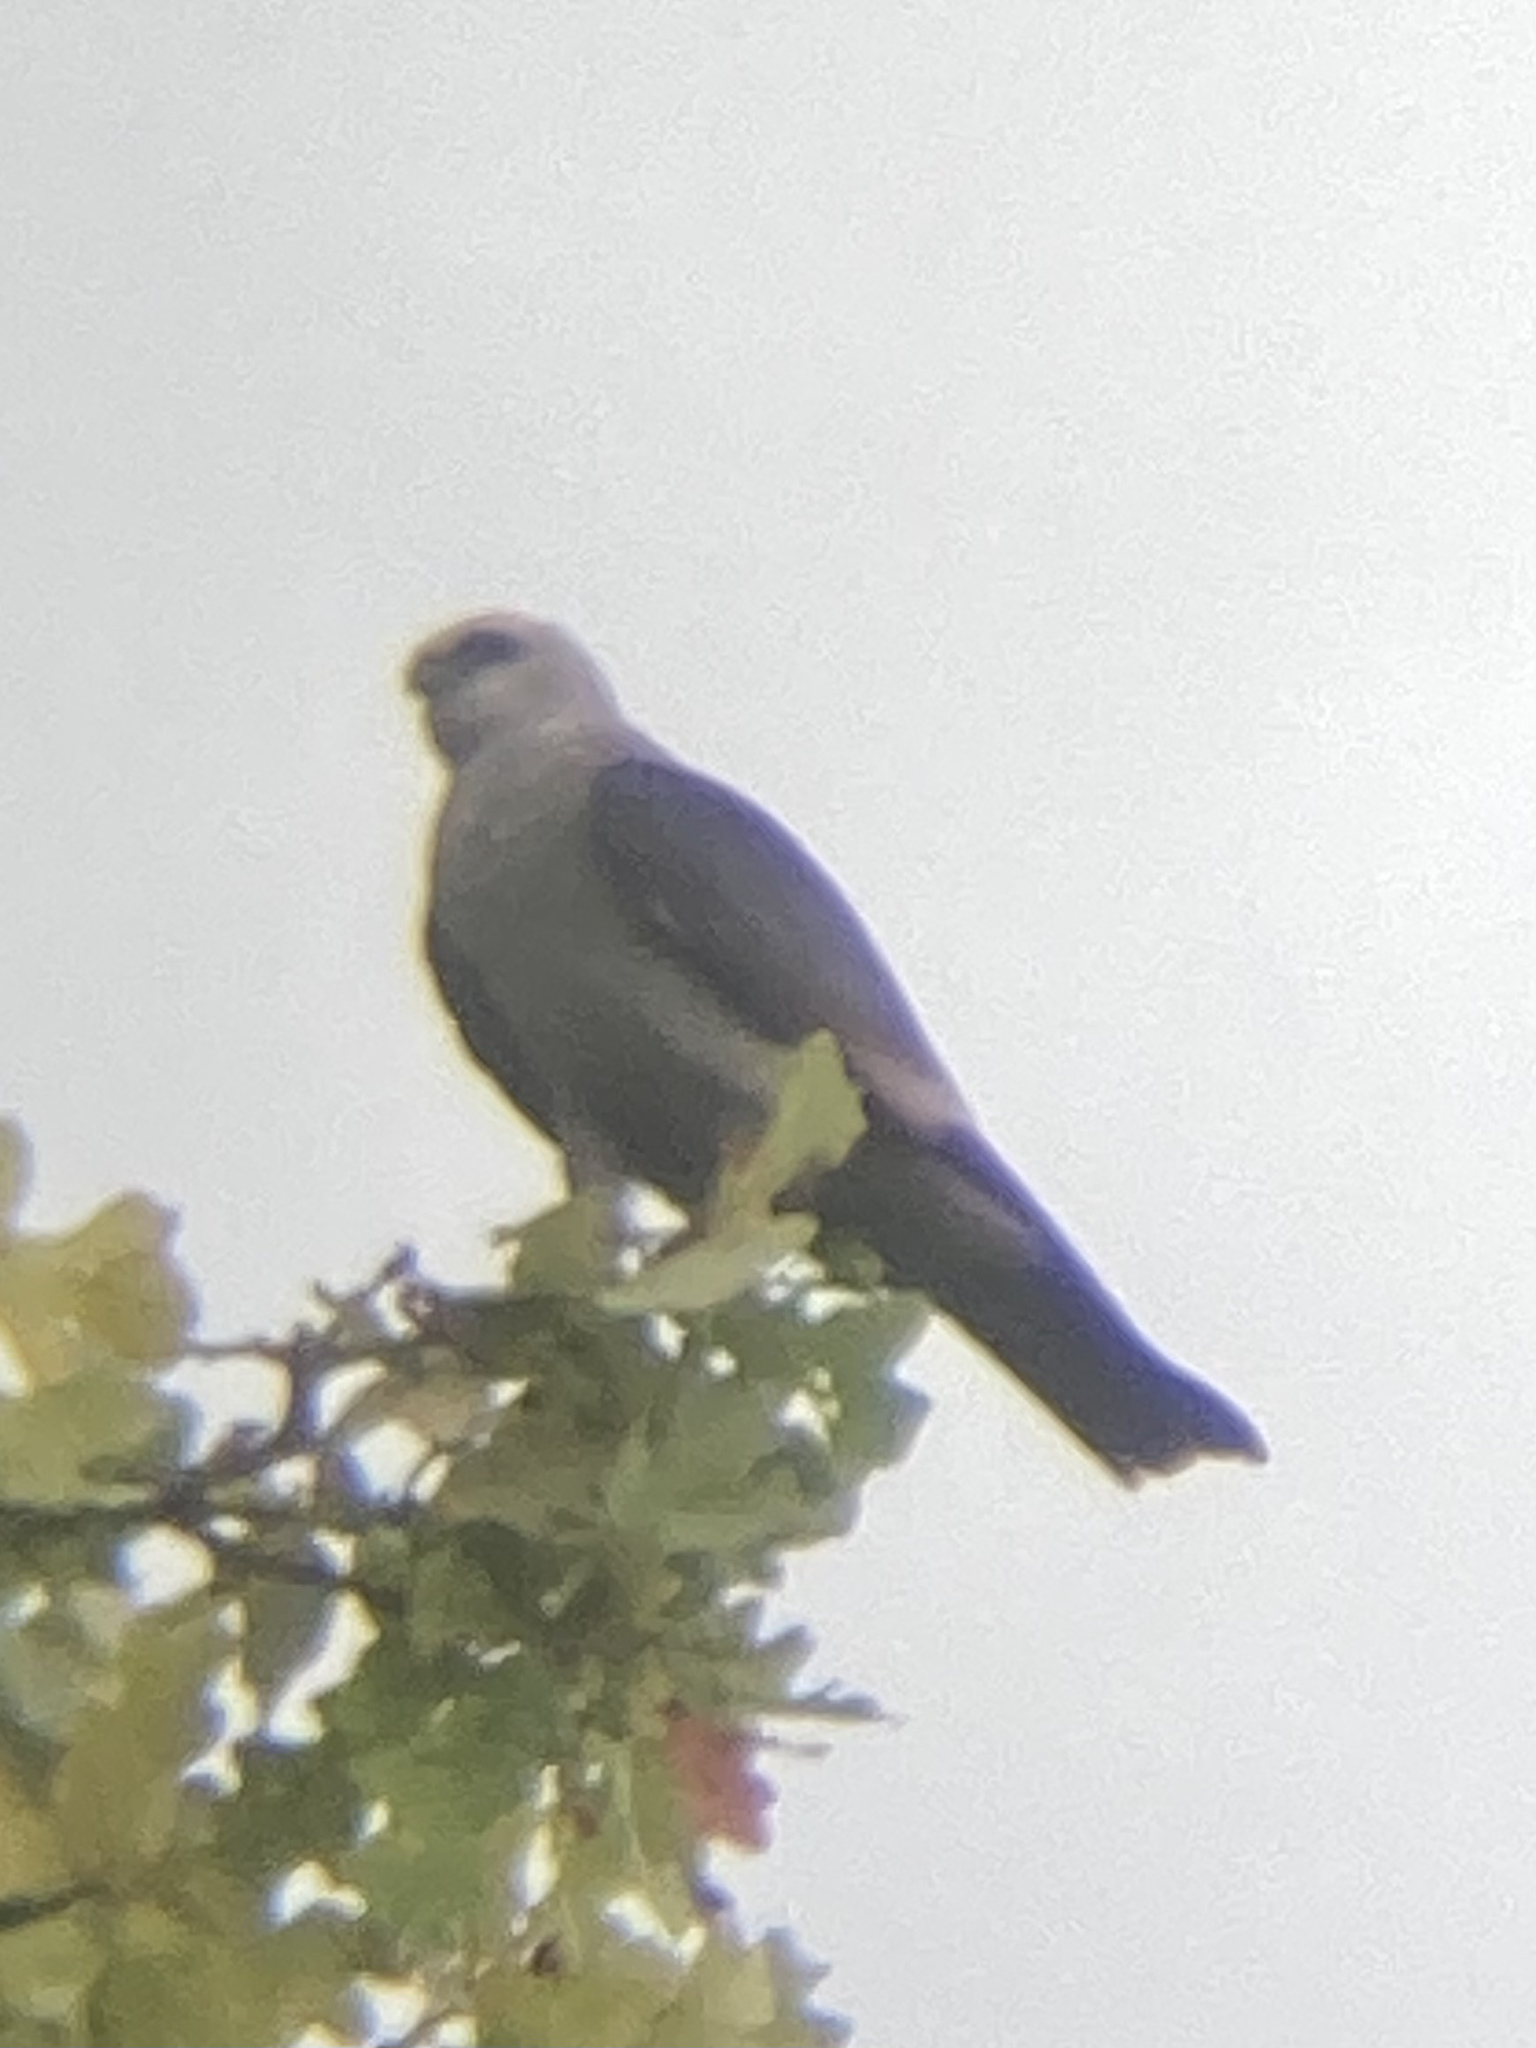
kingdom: Animalia
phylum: Chordata
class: Aves
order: Accipitriformes
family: Accipitridae
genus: Ictinia
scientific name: Ictinia mississippiensis
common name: Mississippi kite
